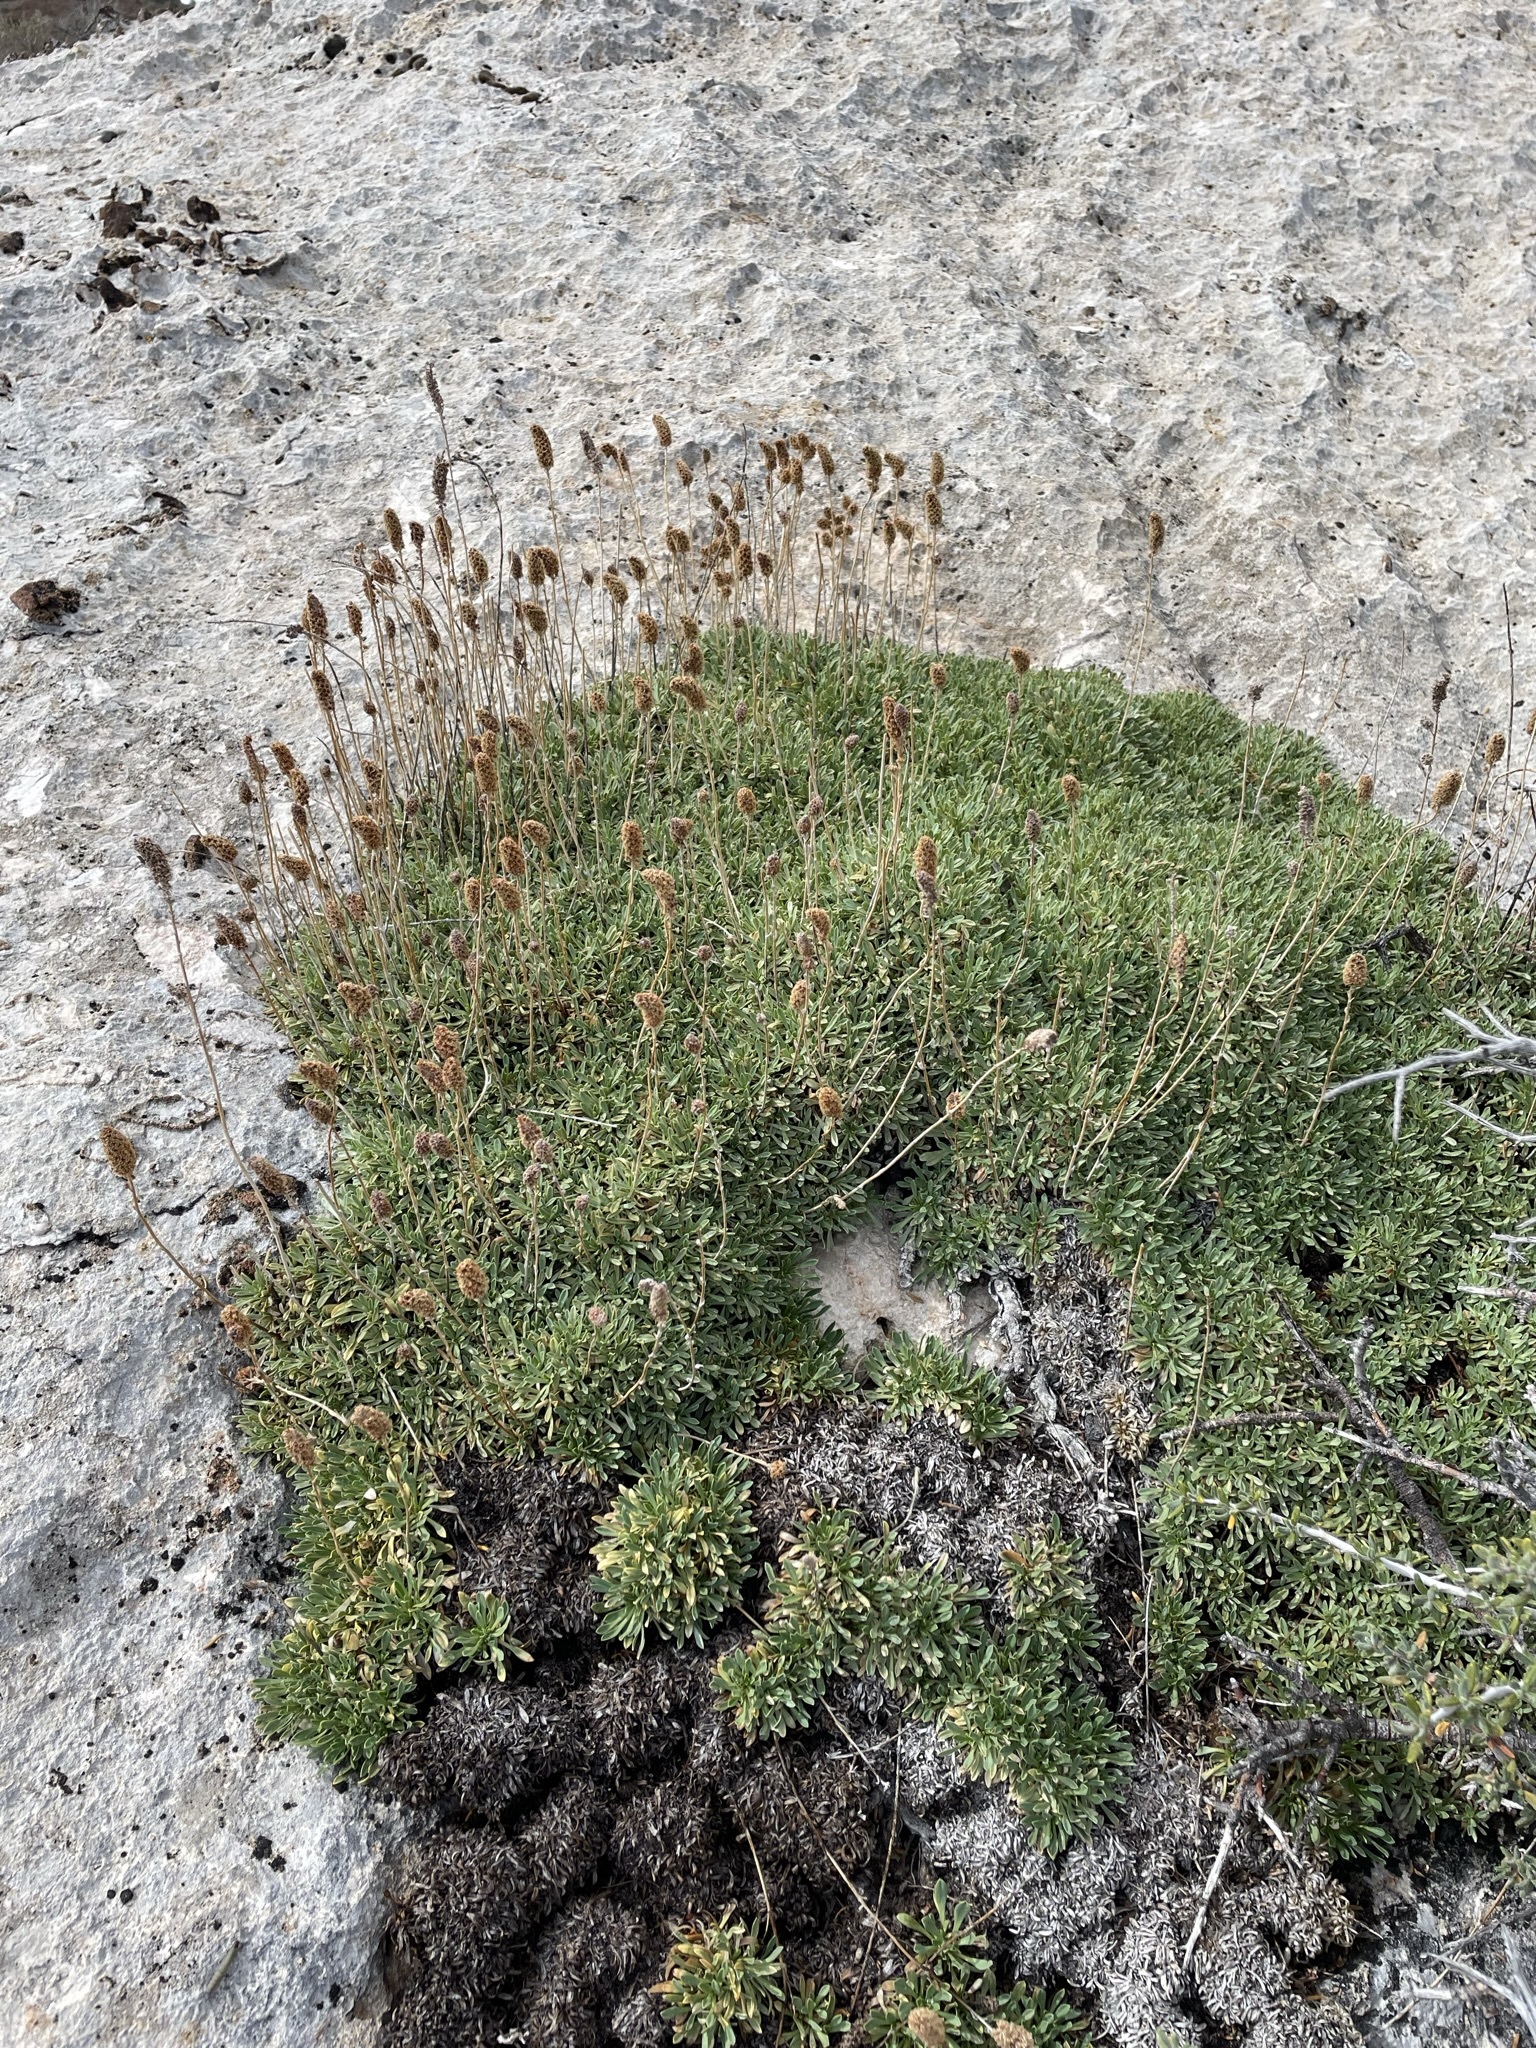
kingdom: Plantae
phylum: Tracheophyta
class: Magnoliopsida
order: Rosales
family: Rosaceae
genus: Petrophytum
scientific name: Petrophytum caespitosum
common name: Mat rockspirea
